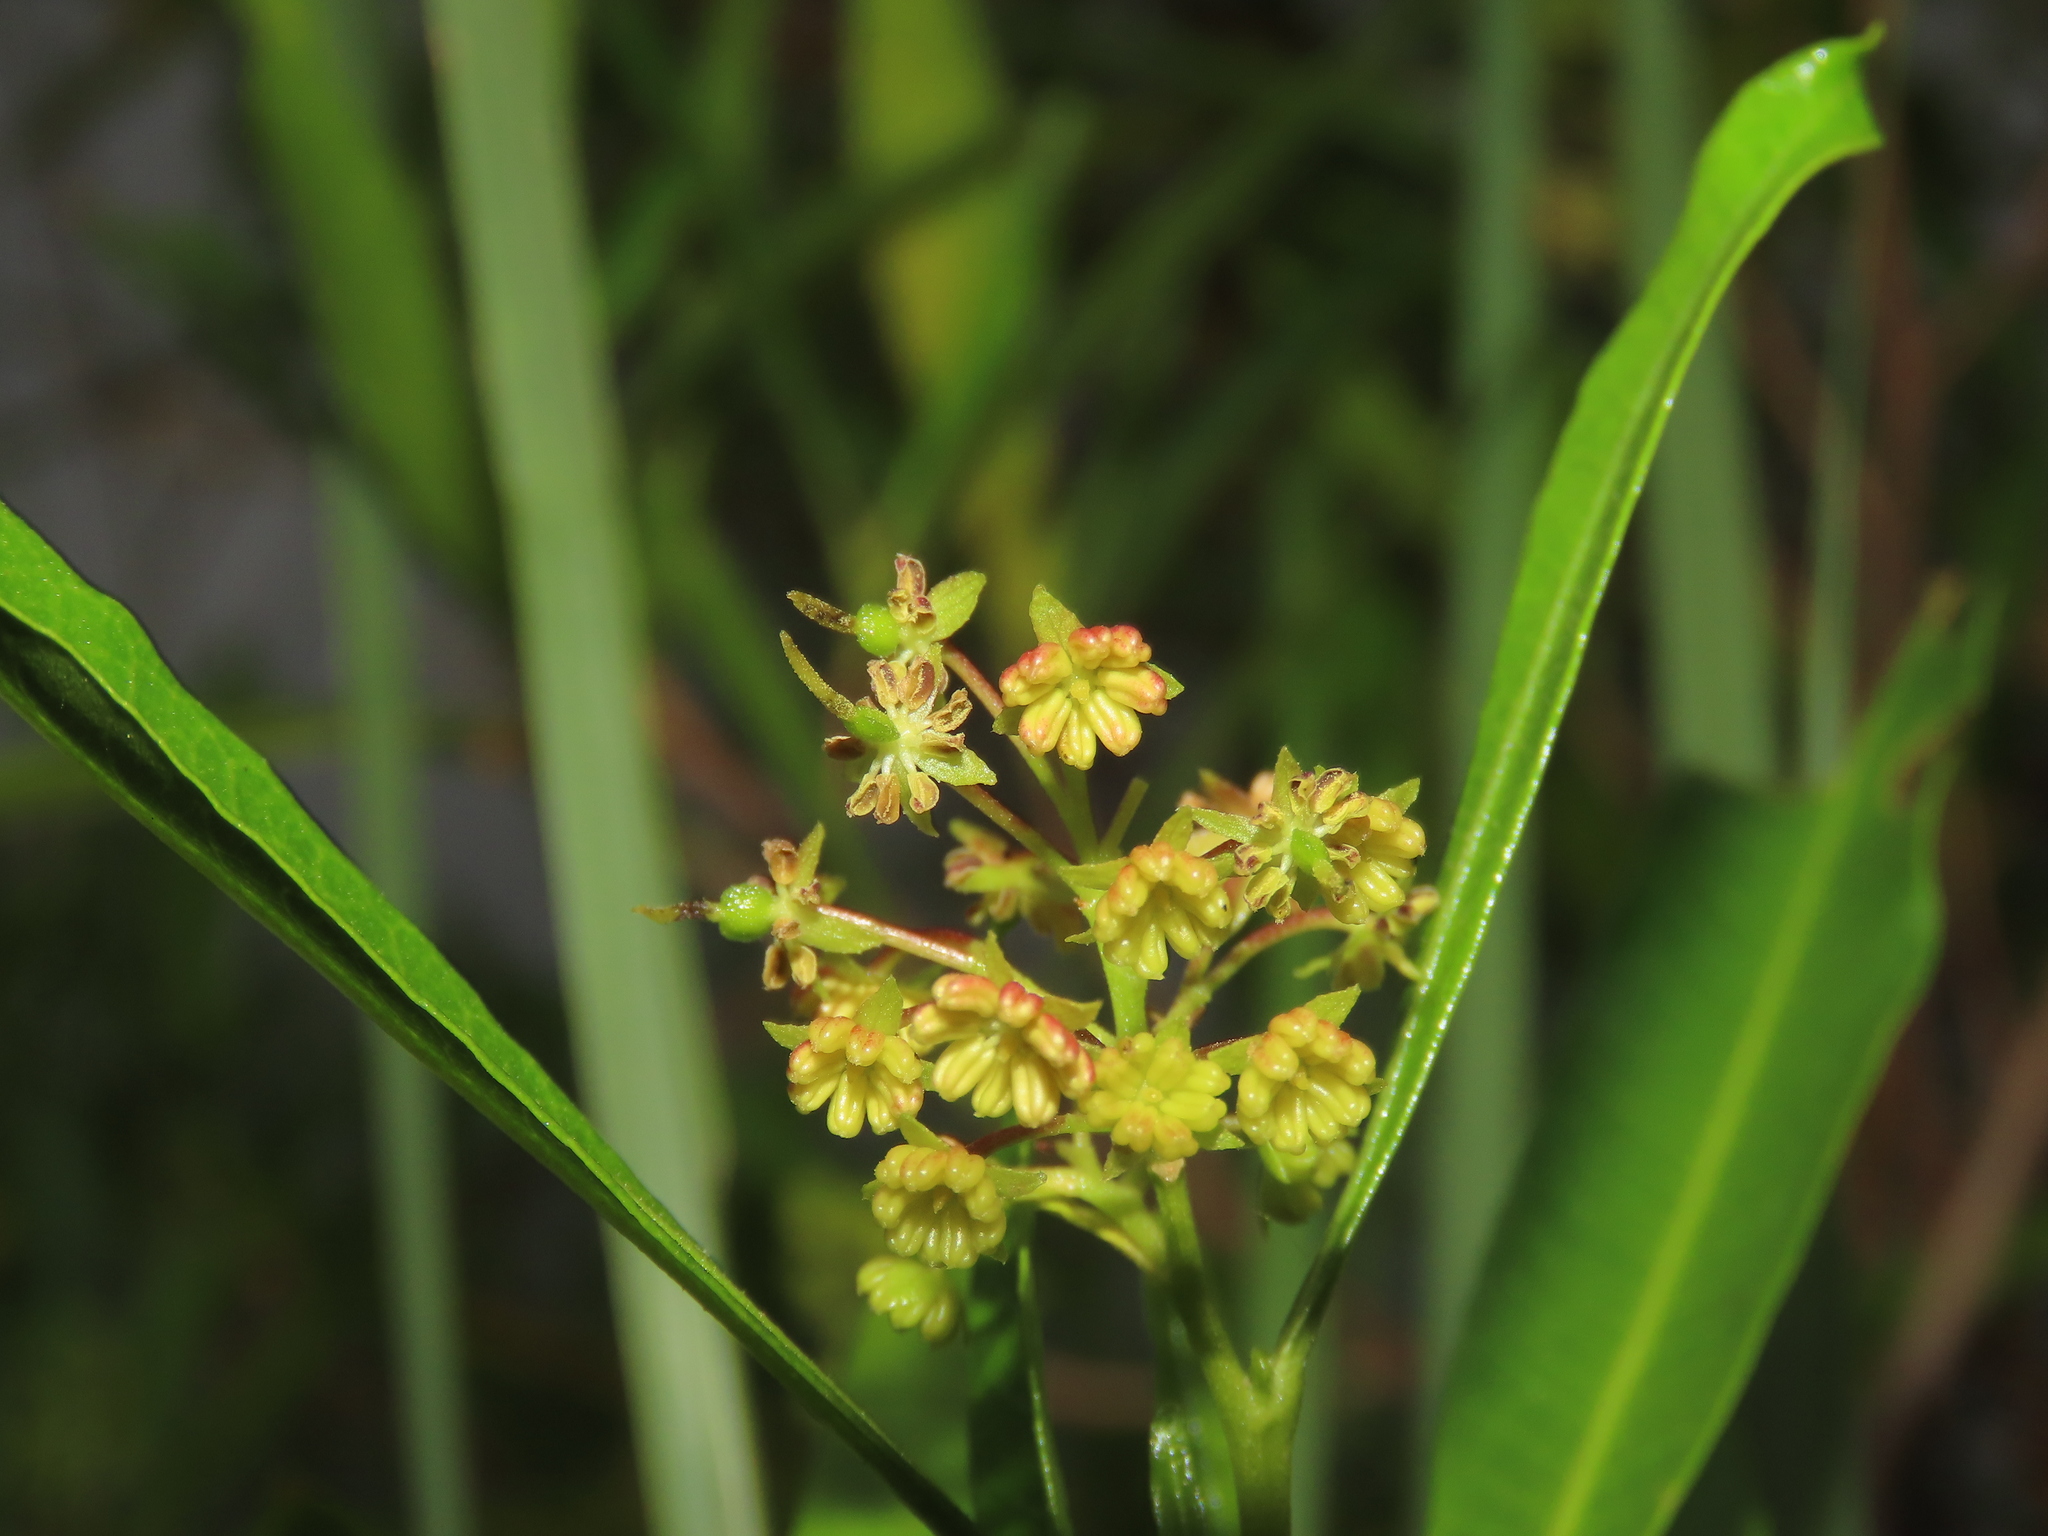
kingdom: Plantae
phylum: Tracheophyta
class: Magnoliopsida
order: Sapindales
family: Sapindaceae
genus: Dodonaea
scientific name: Dodonaea viscosa
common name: Hopbush
